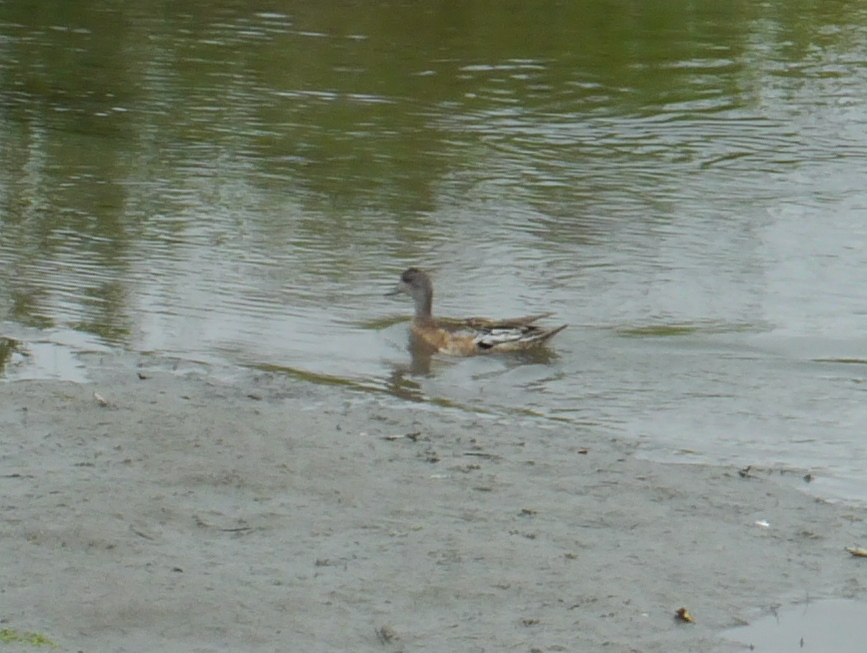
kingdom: Animalia
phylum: Chordata
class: Aves
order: Anseriformes
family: Anatidae
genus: Mareca
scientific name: Mareca americana
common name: American wigeon
